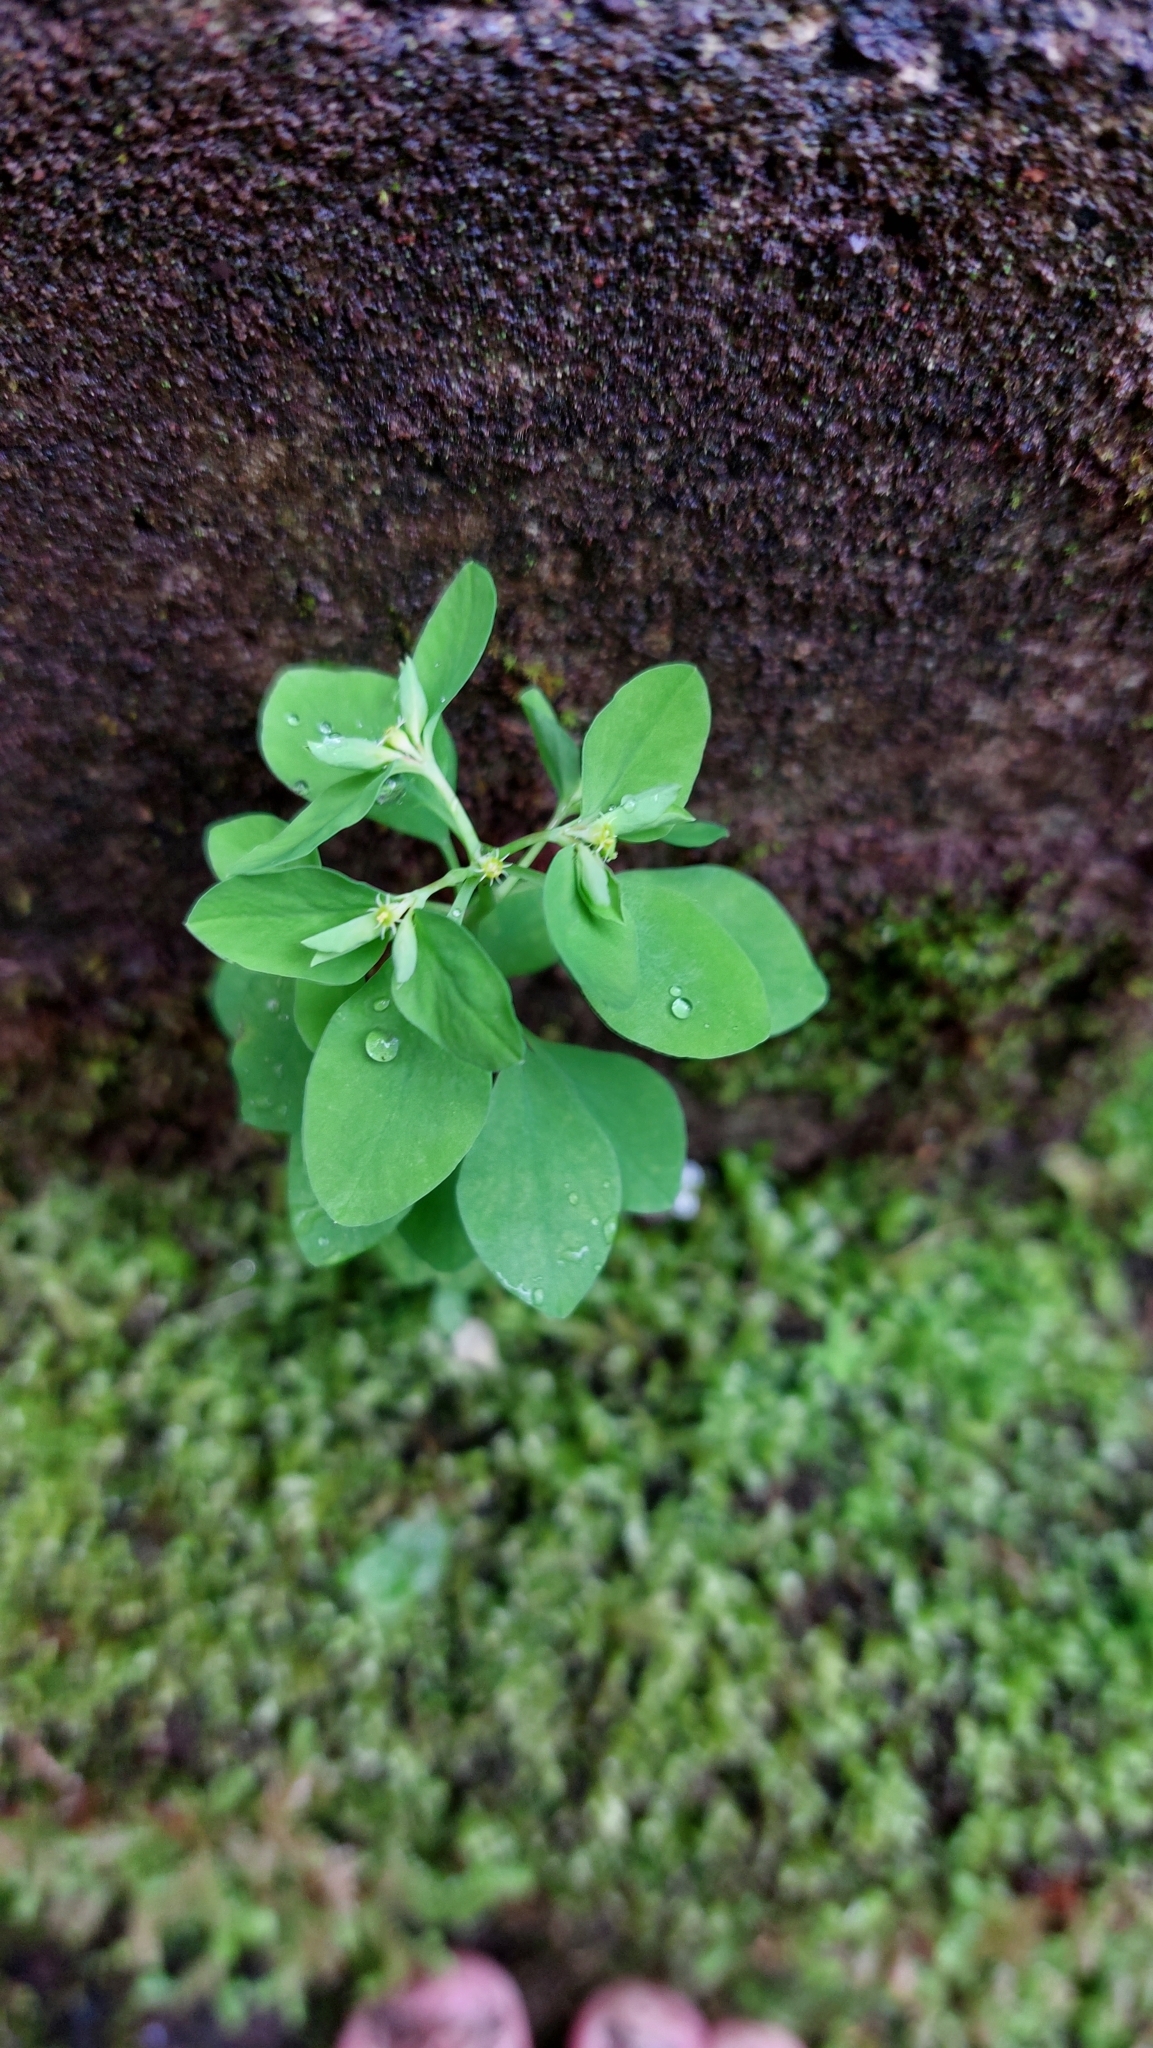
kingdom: Plantae
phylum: Tracheophyta
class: Magnoliopsida
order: Malpighiales
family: Euphorbiaceae
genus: Euphorbia
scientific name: Euphorbia peplus
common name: Petty spurge
